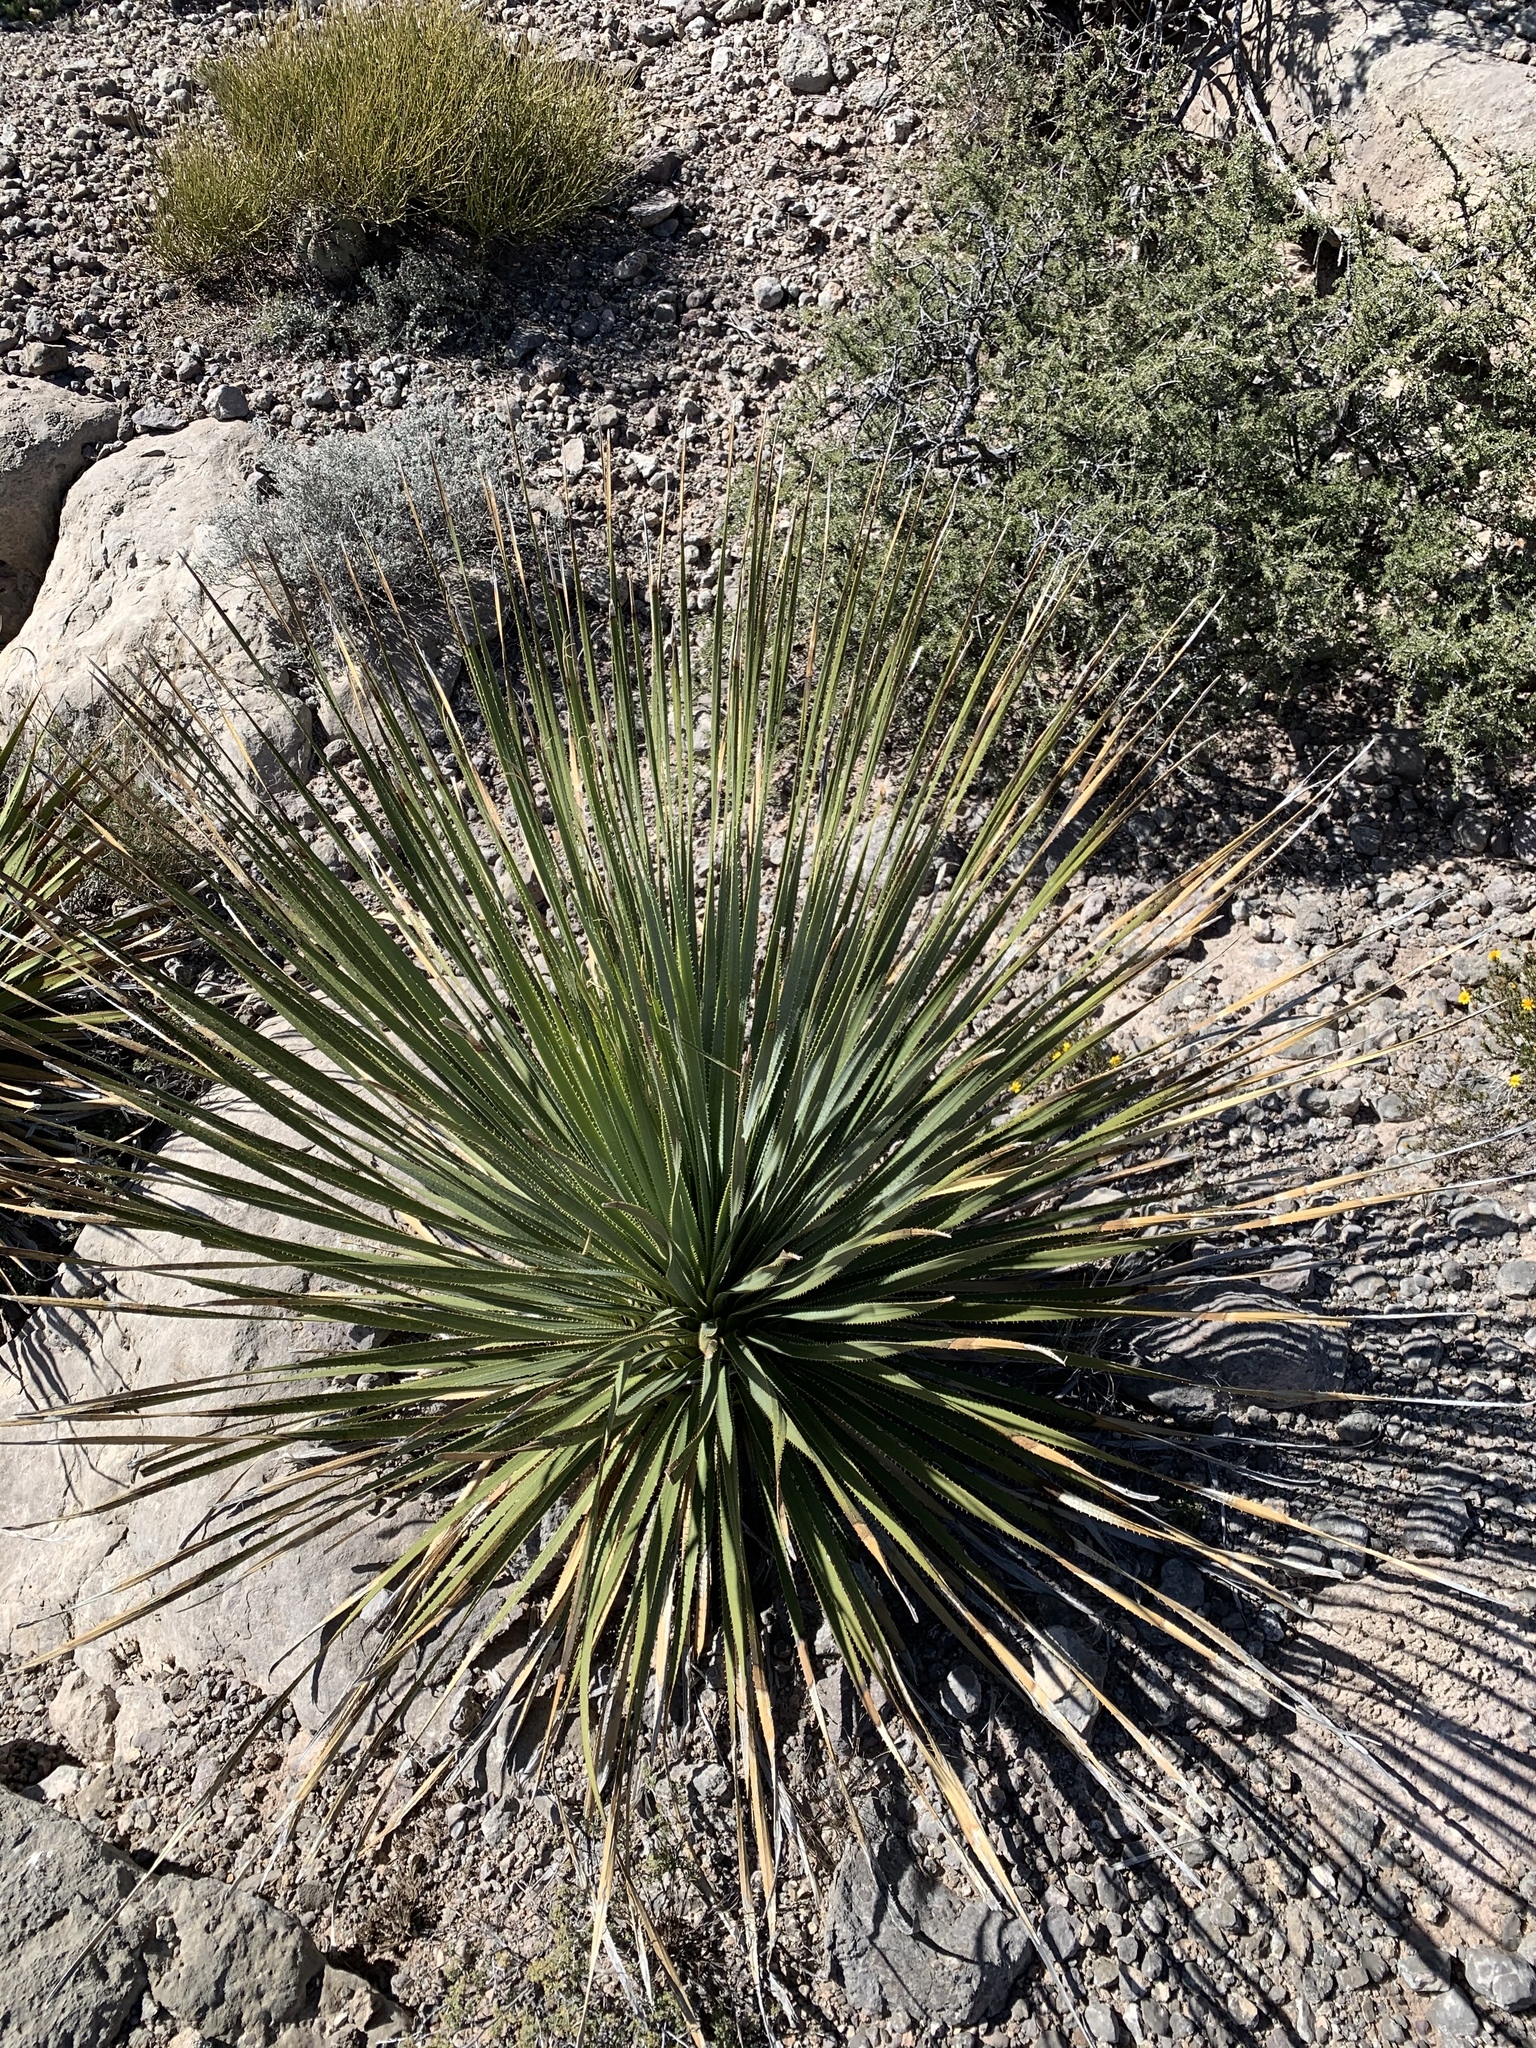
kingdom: Plantae
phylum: Tracheophyta
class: Liliopsida
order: Asparagales
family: Asparagaceae
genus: Dasylirion
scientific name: Dasylirion wheeleri
